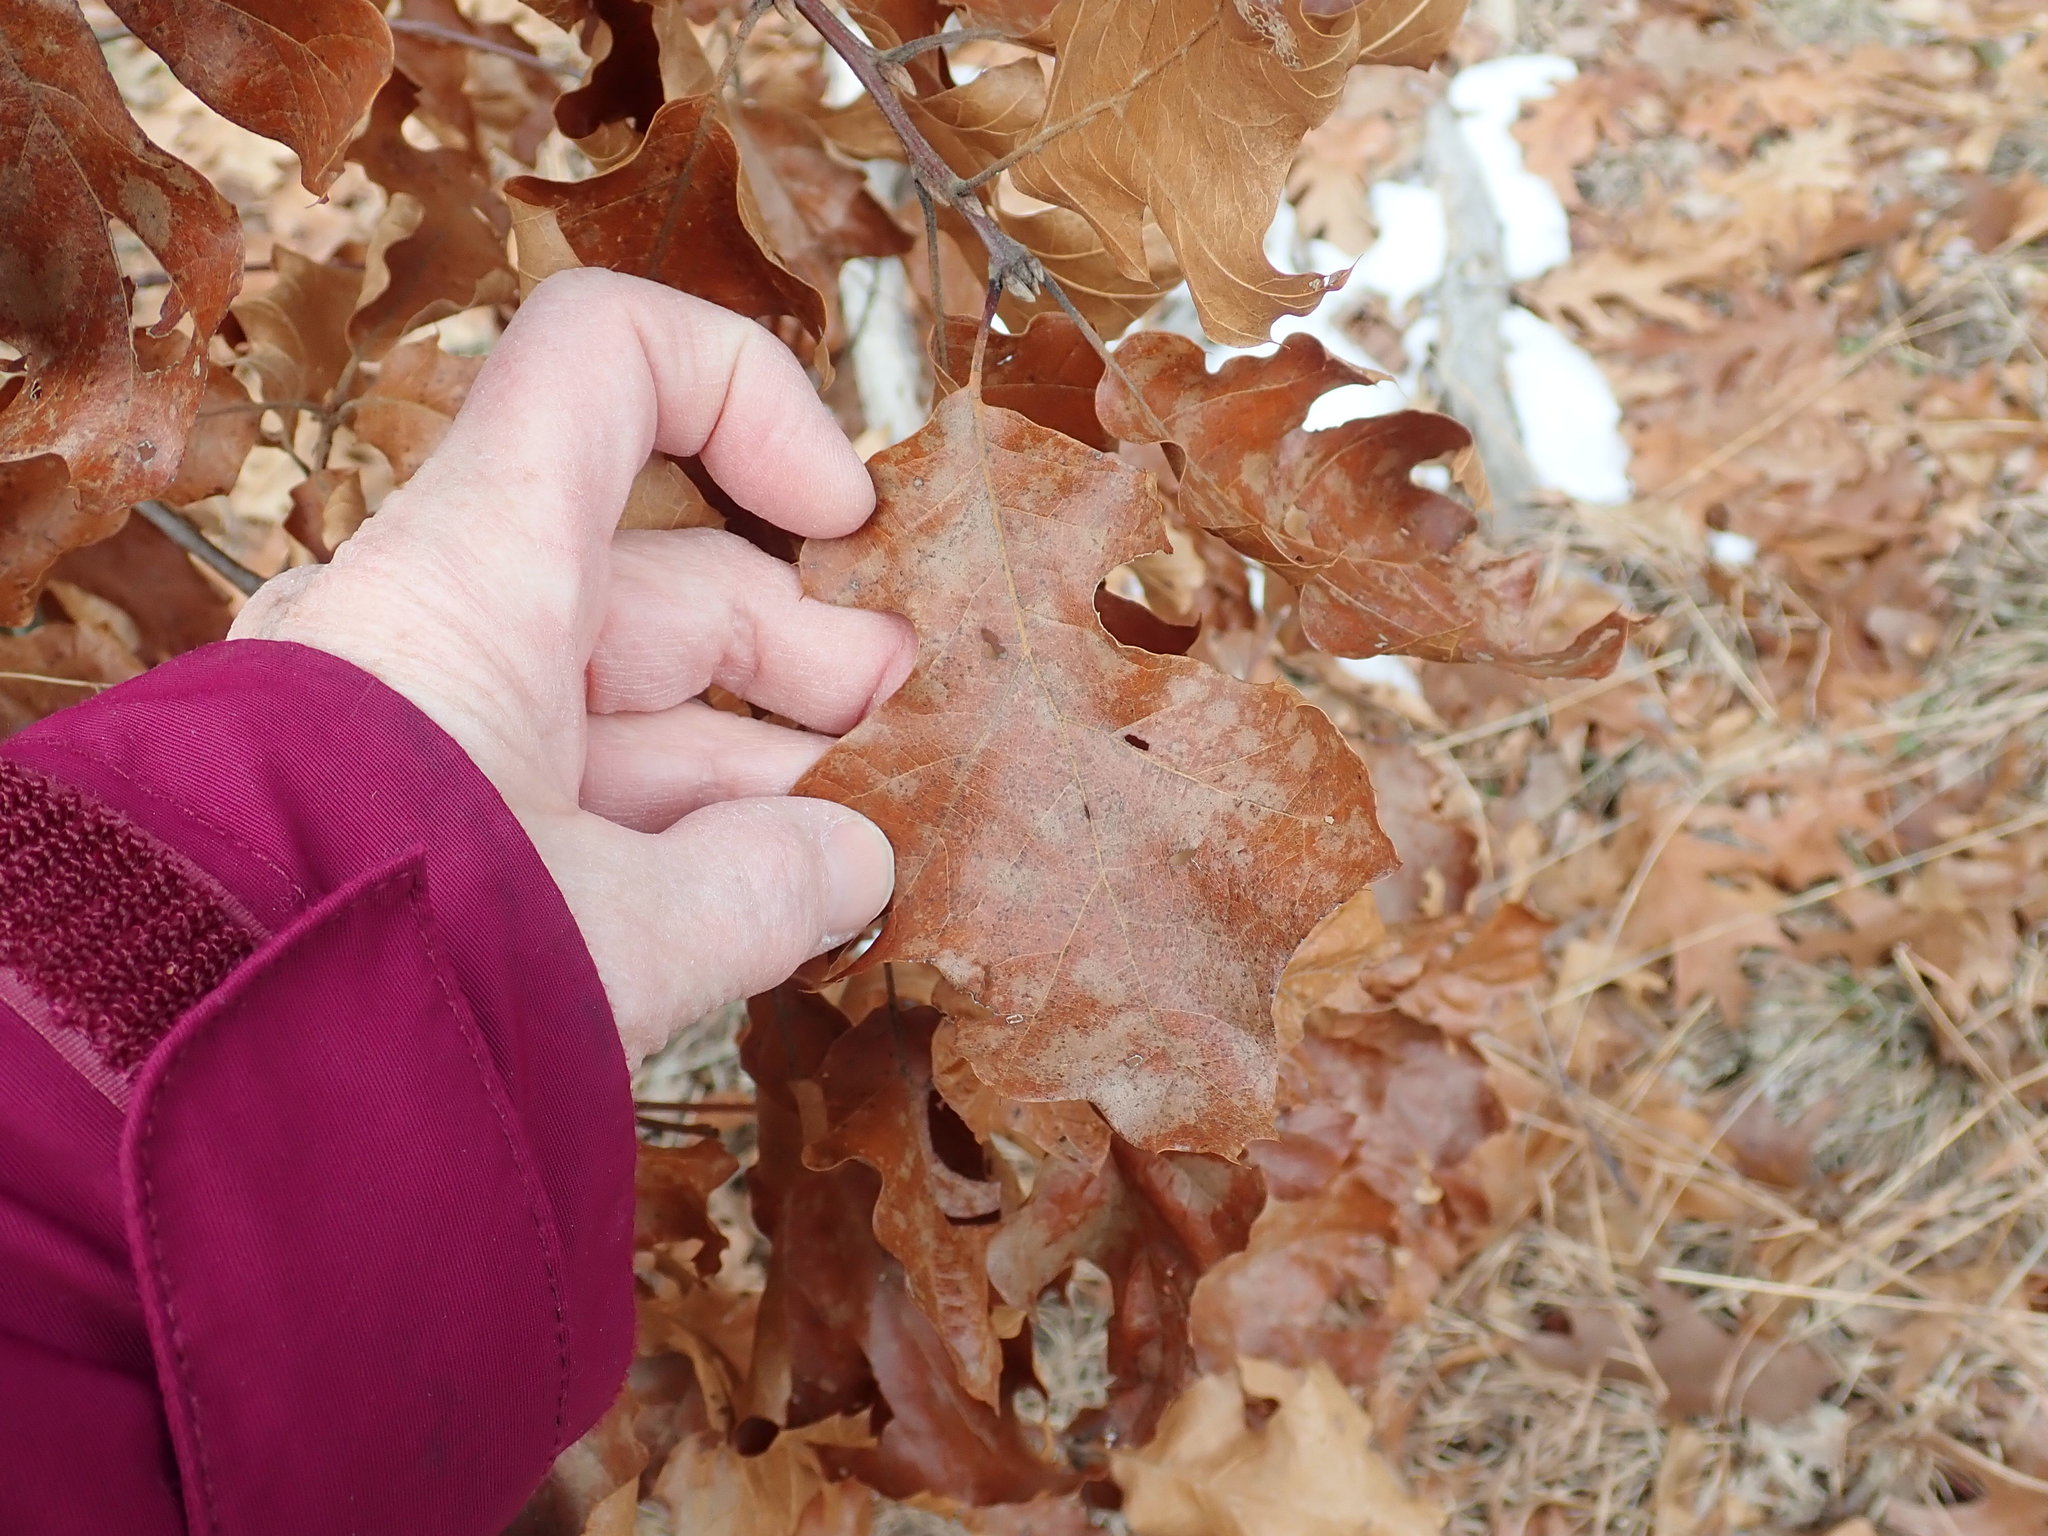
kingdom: Plantae
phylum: Tracheophyta
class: Magnoliopsida
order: Fagales
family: Fagaceae
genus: Quercus
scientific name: Quercus velutina
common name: Black oak
